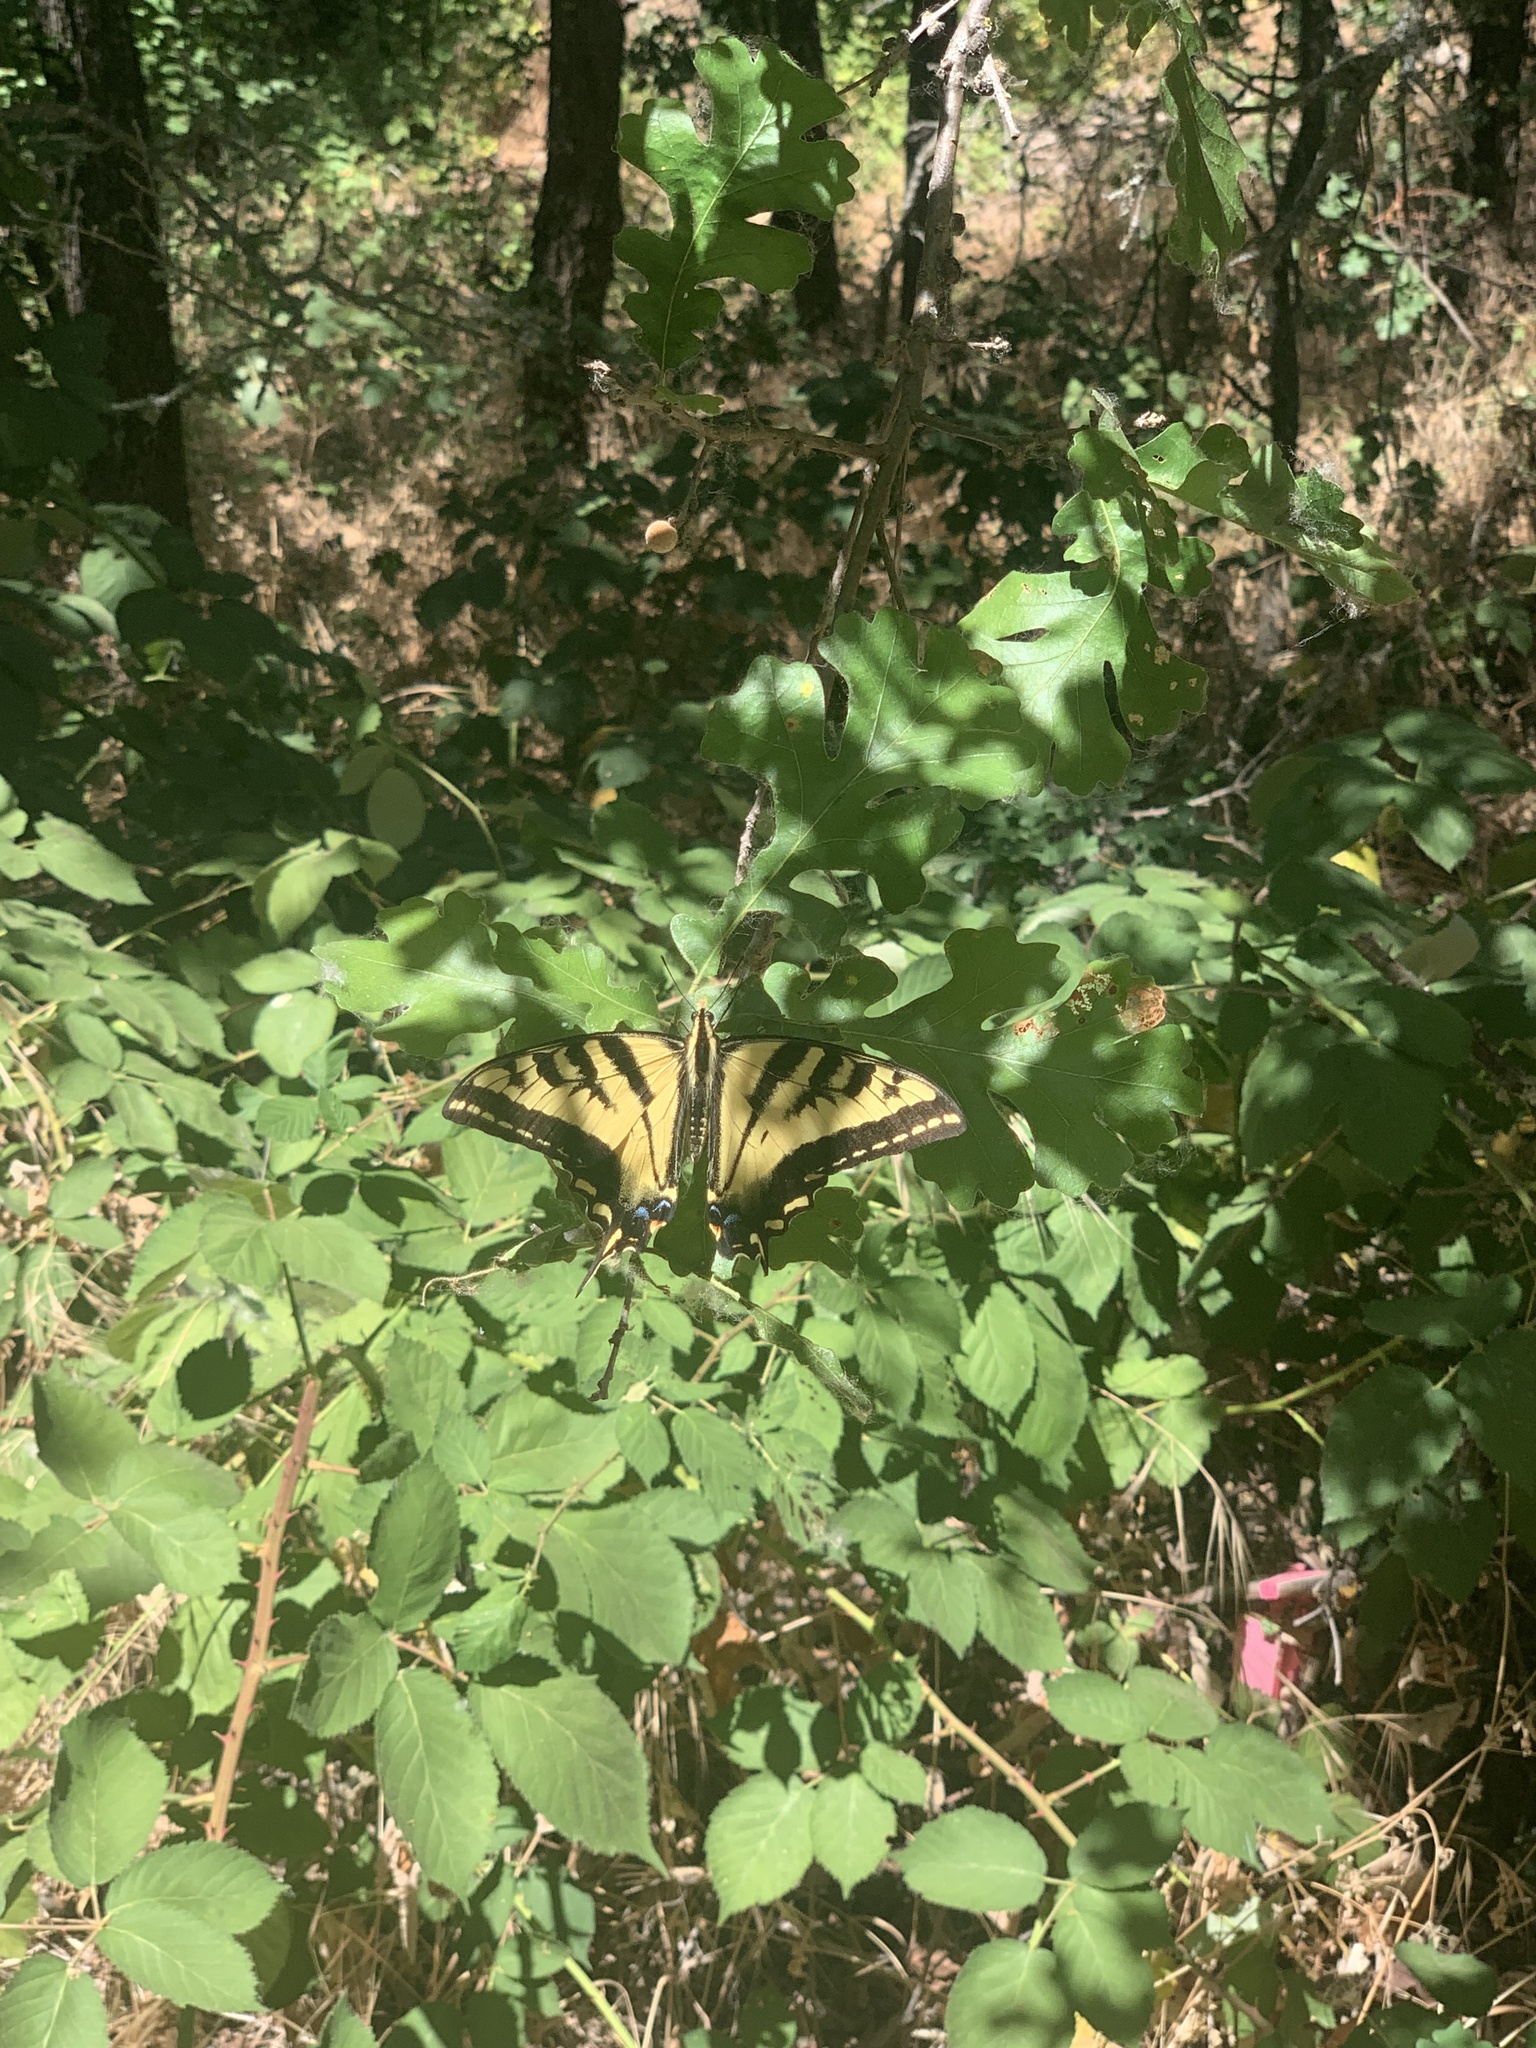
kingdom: Animalia
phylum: Arthropoda
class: Insecta
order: Lepidoptera
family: Papilionidae
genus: Papilio
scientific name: Papilio rutulus
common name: Western tiger swallowtail
